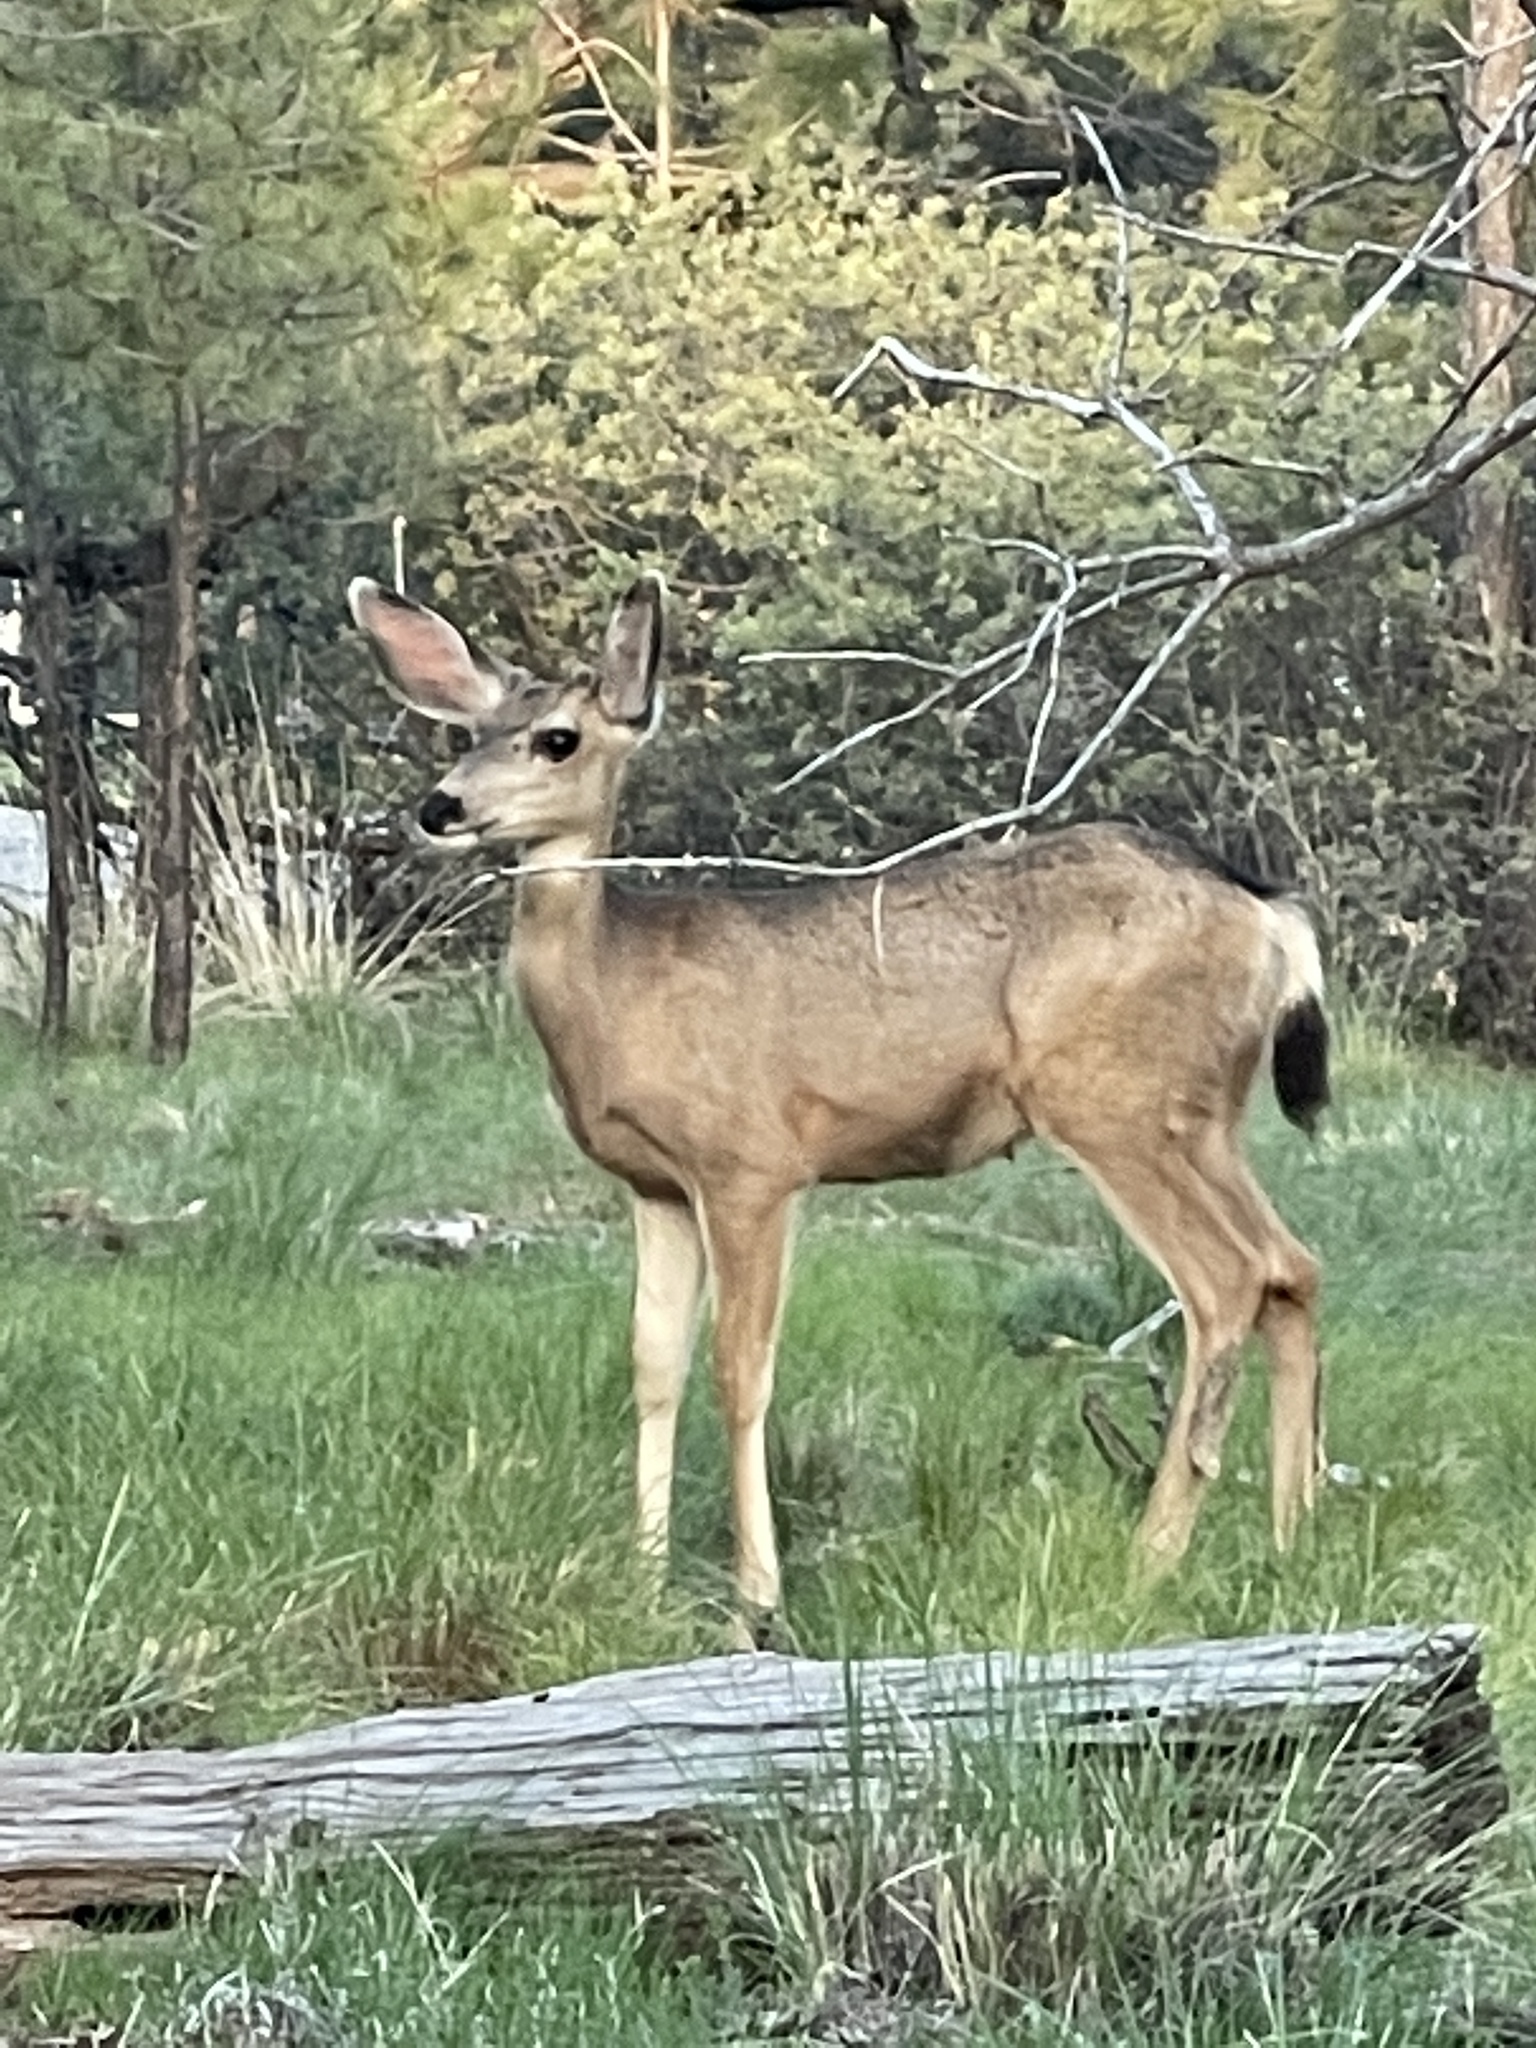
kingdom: Animalia
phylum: Chordata
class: Mammalia
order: Artiodactyla
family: Cervidae
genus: Odocoileus
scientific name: Odocoileus hemionus
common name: Mule deer
